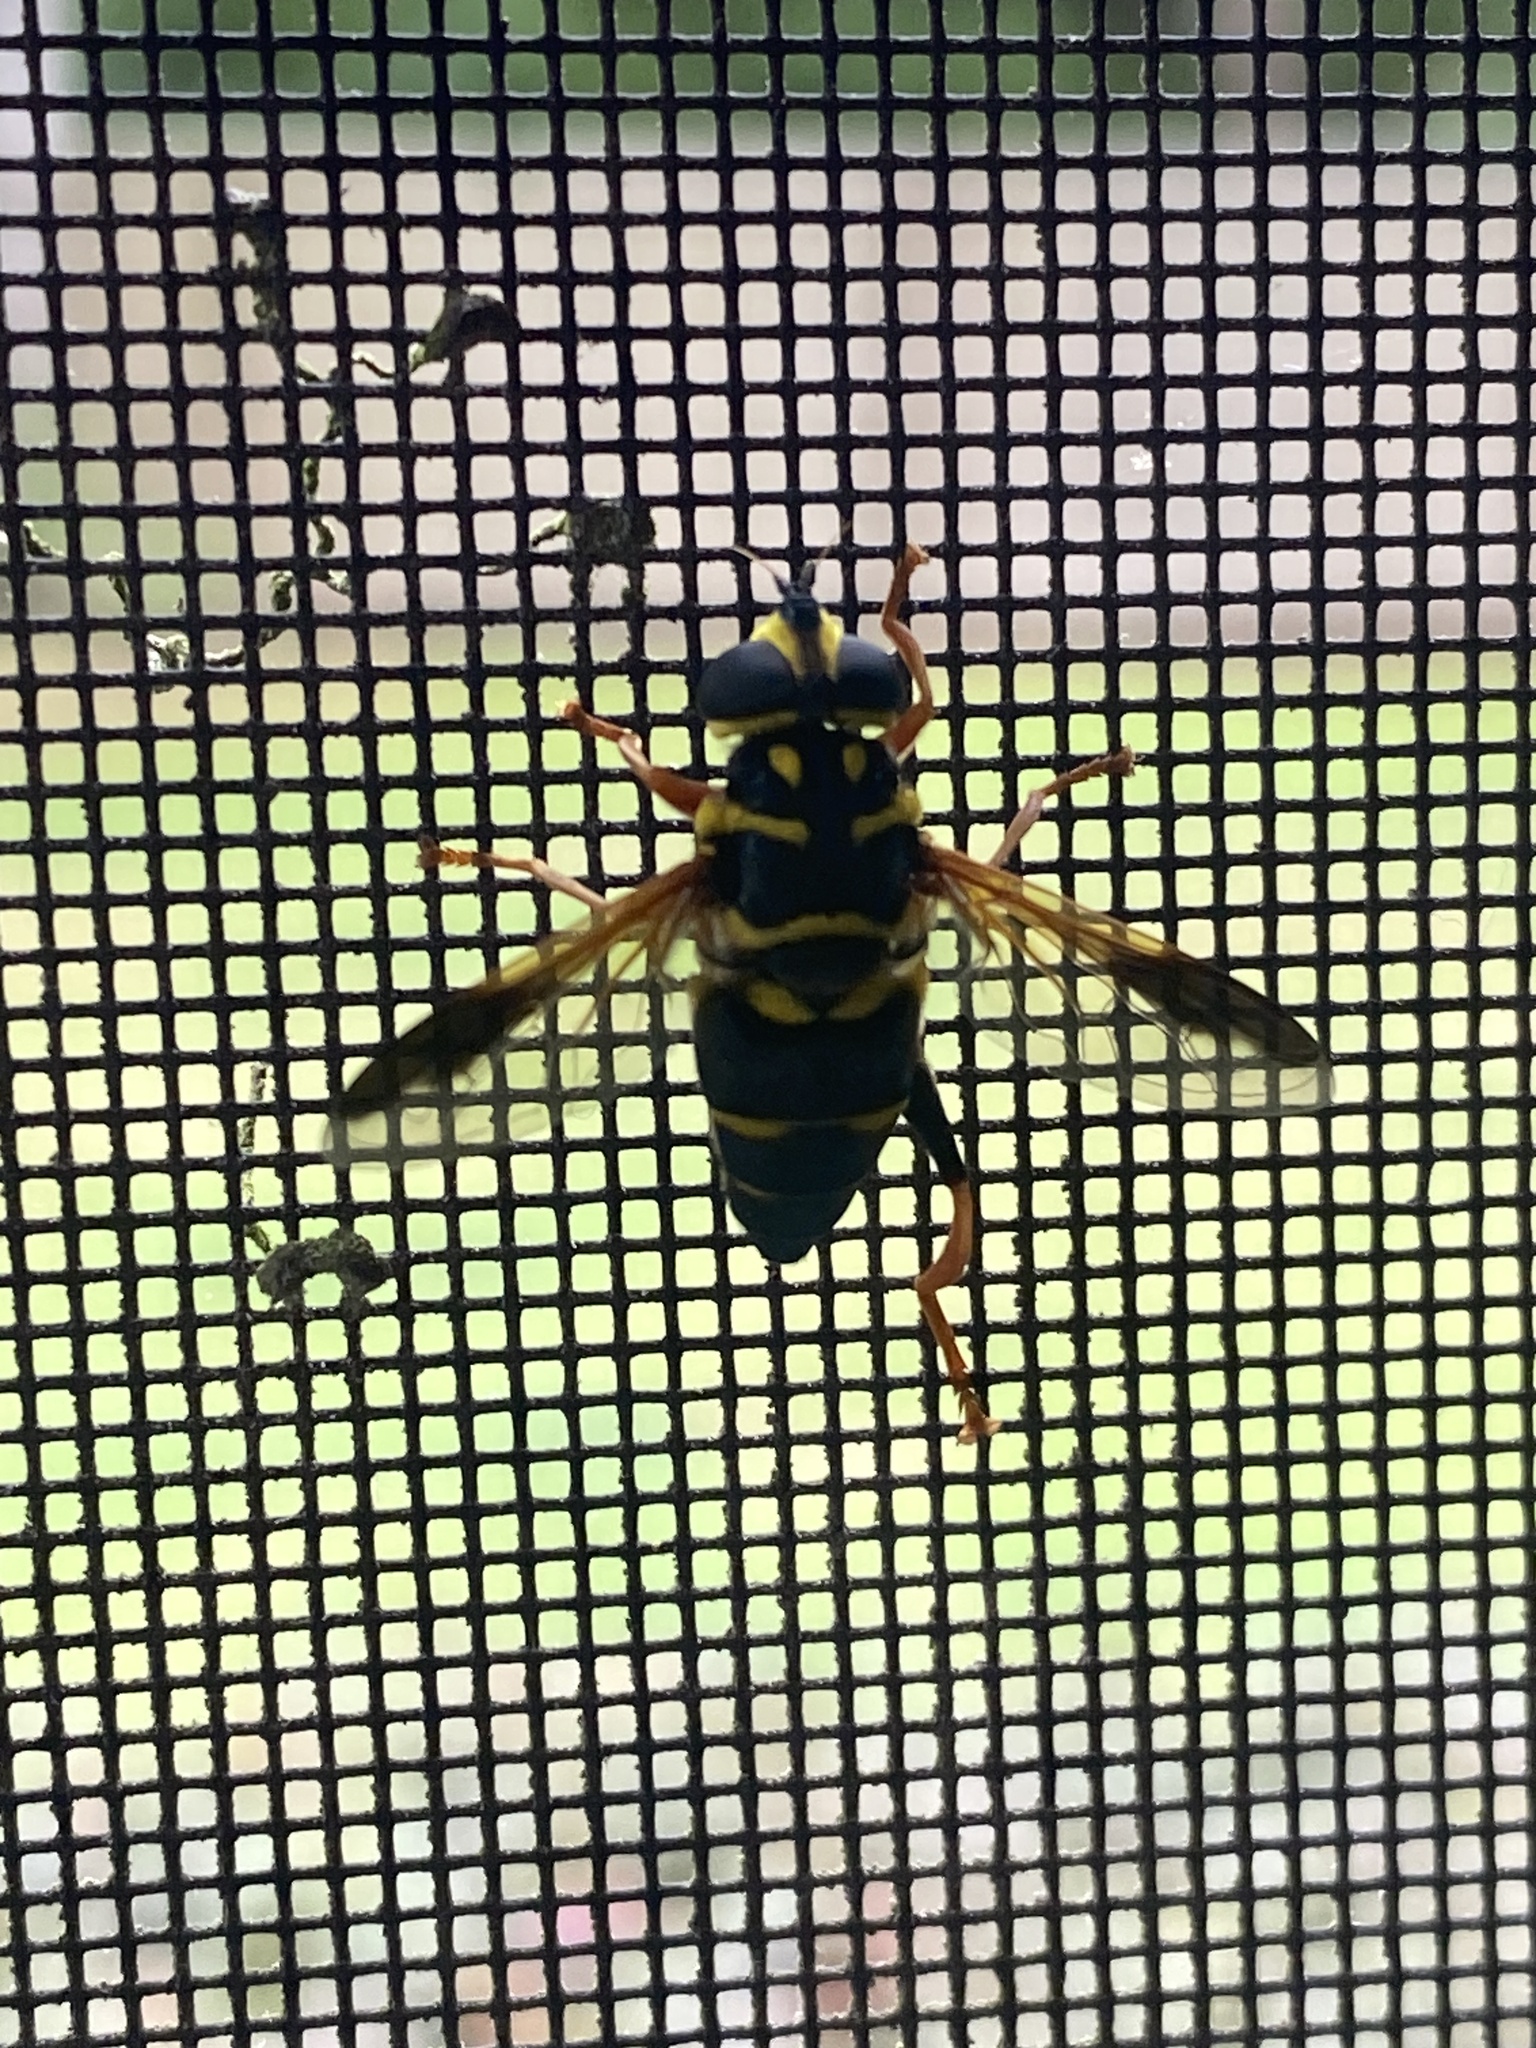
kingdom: Animalia
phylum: Arthropoda
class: Insecta
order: Diptera
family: Syrphidae
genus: Meromacrus
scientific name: Meromacrus acutus
